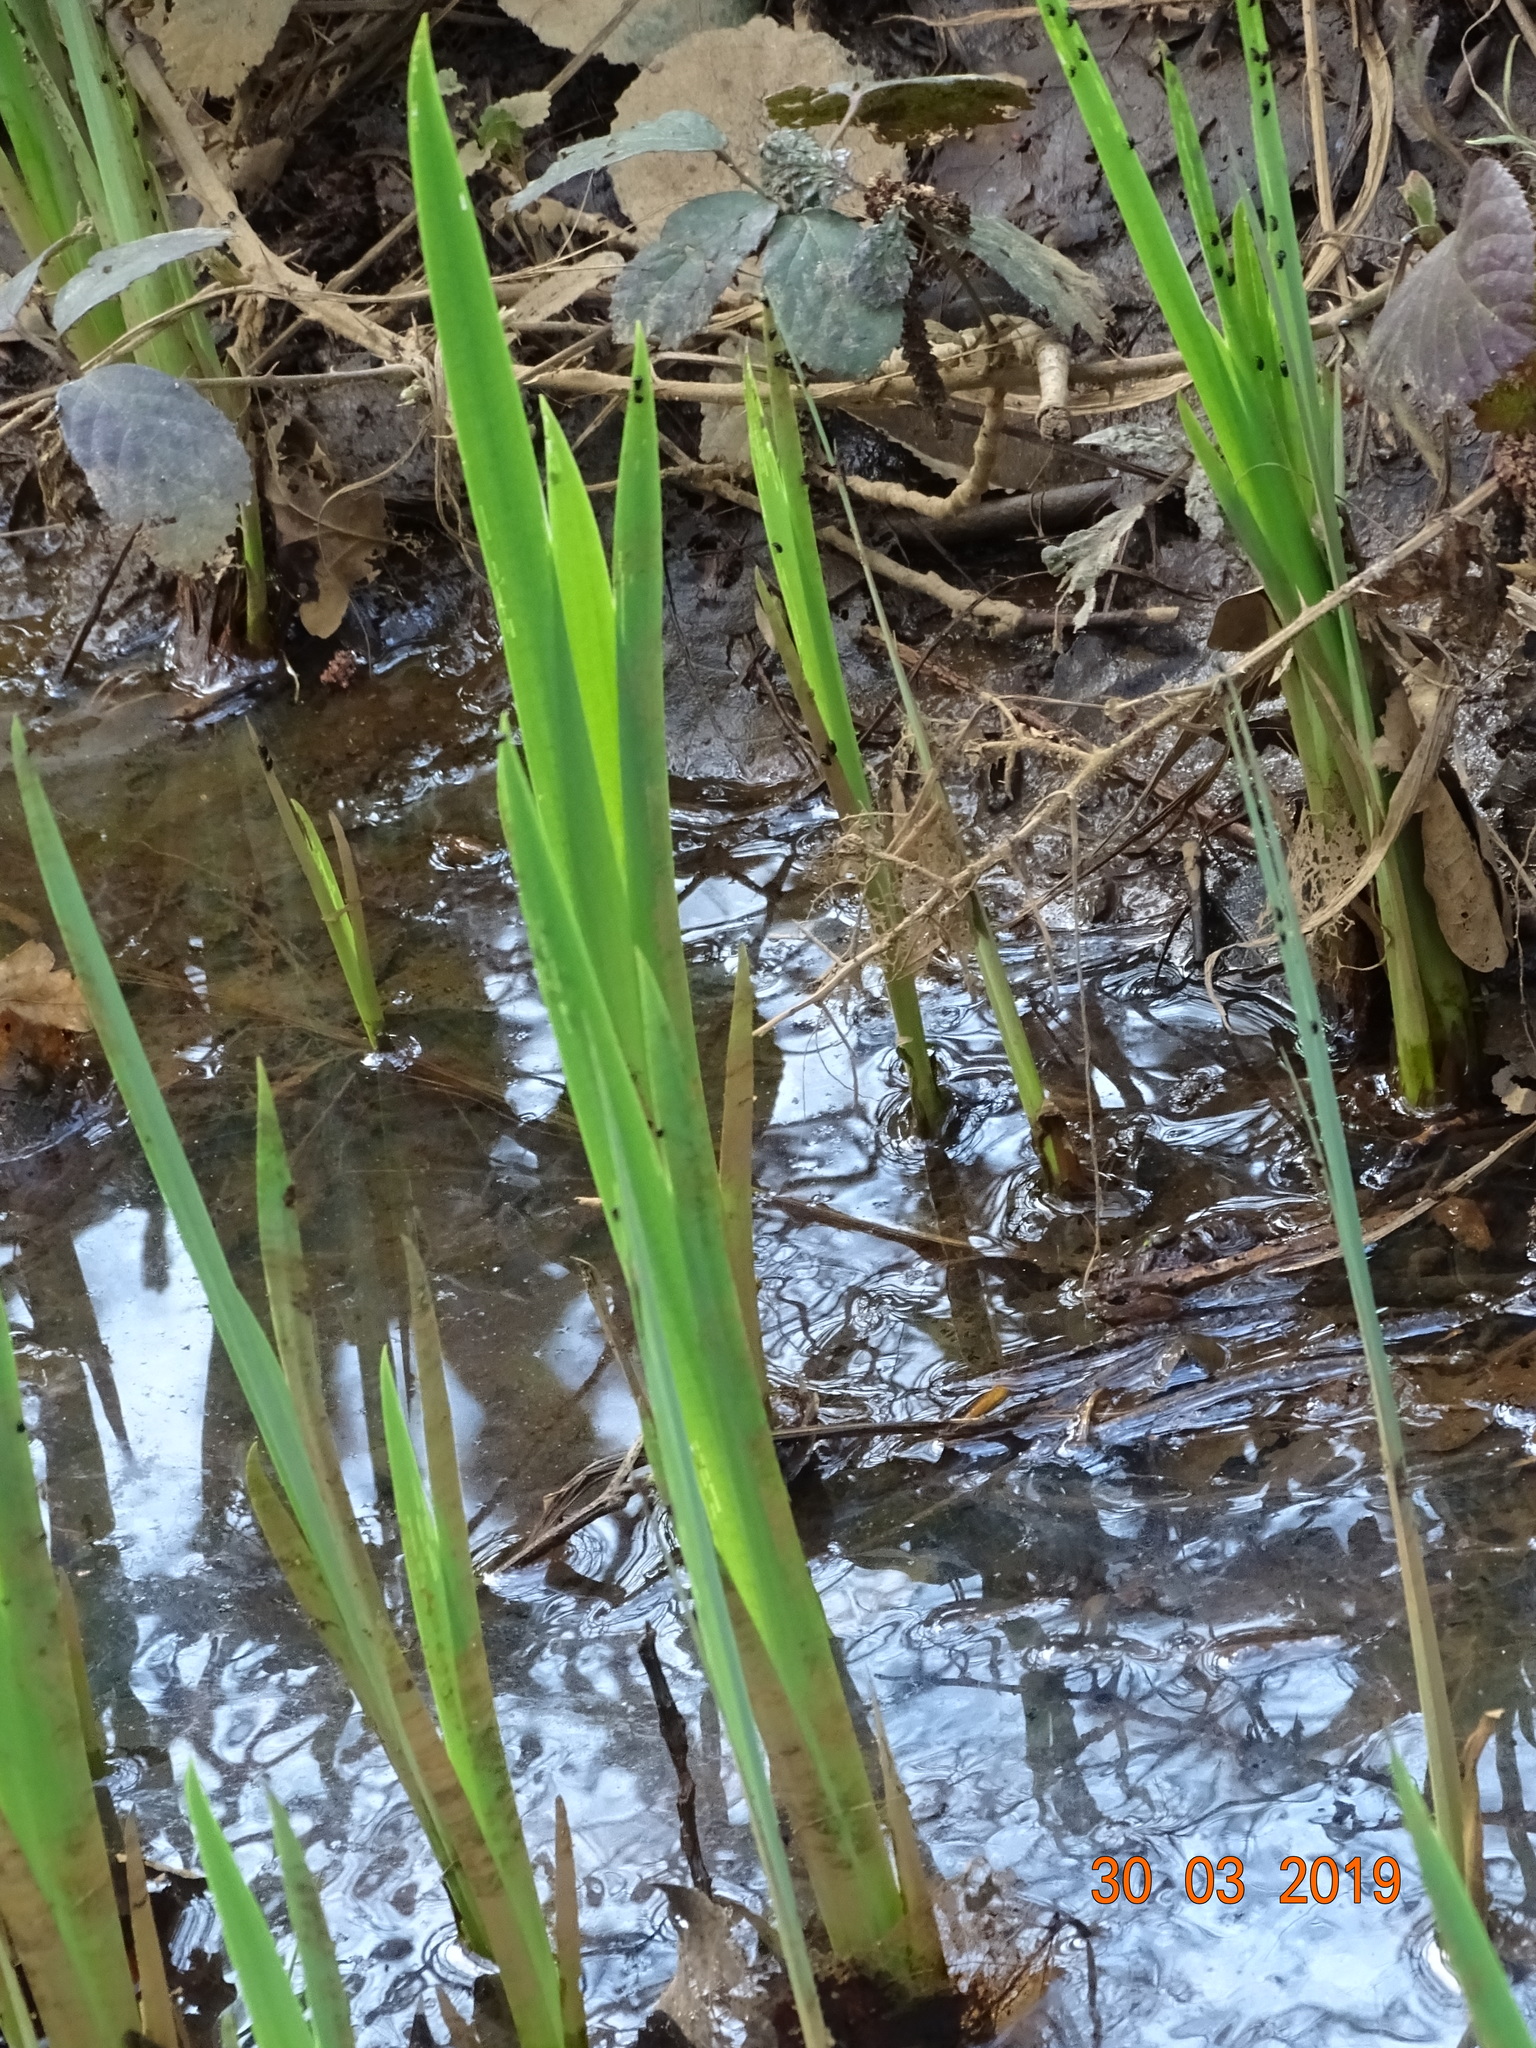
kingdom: Plantae
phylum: Tracheophyta
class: Liliopsida
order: Asparagales
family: Iridaceae
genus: Iris
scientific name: Iris pseudacorus
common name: Yellow flag
